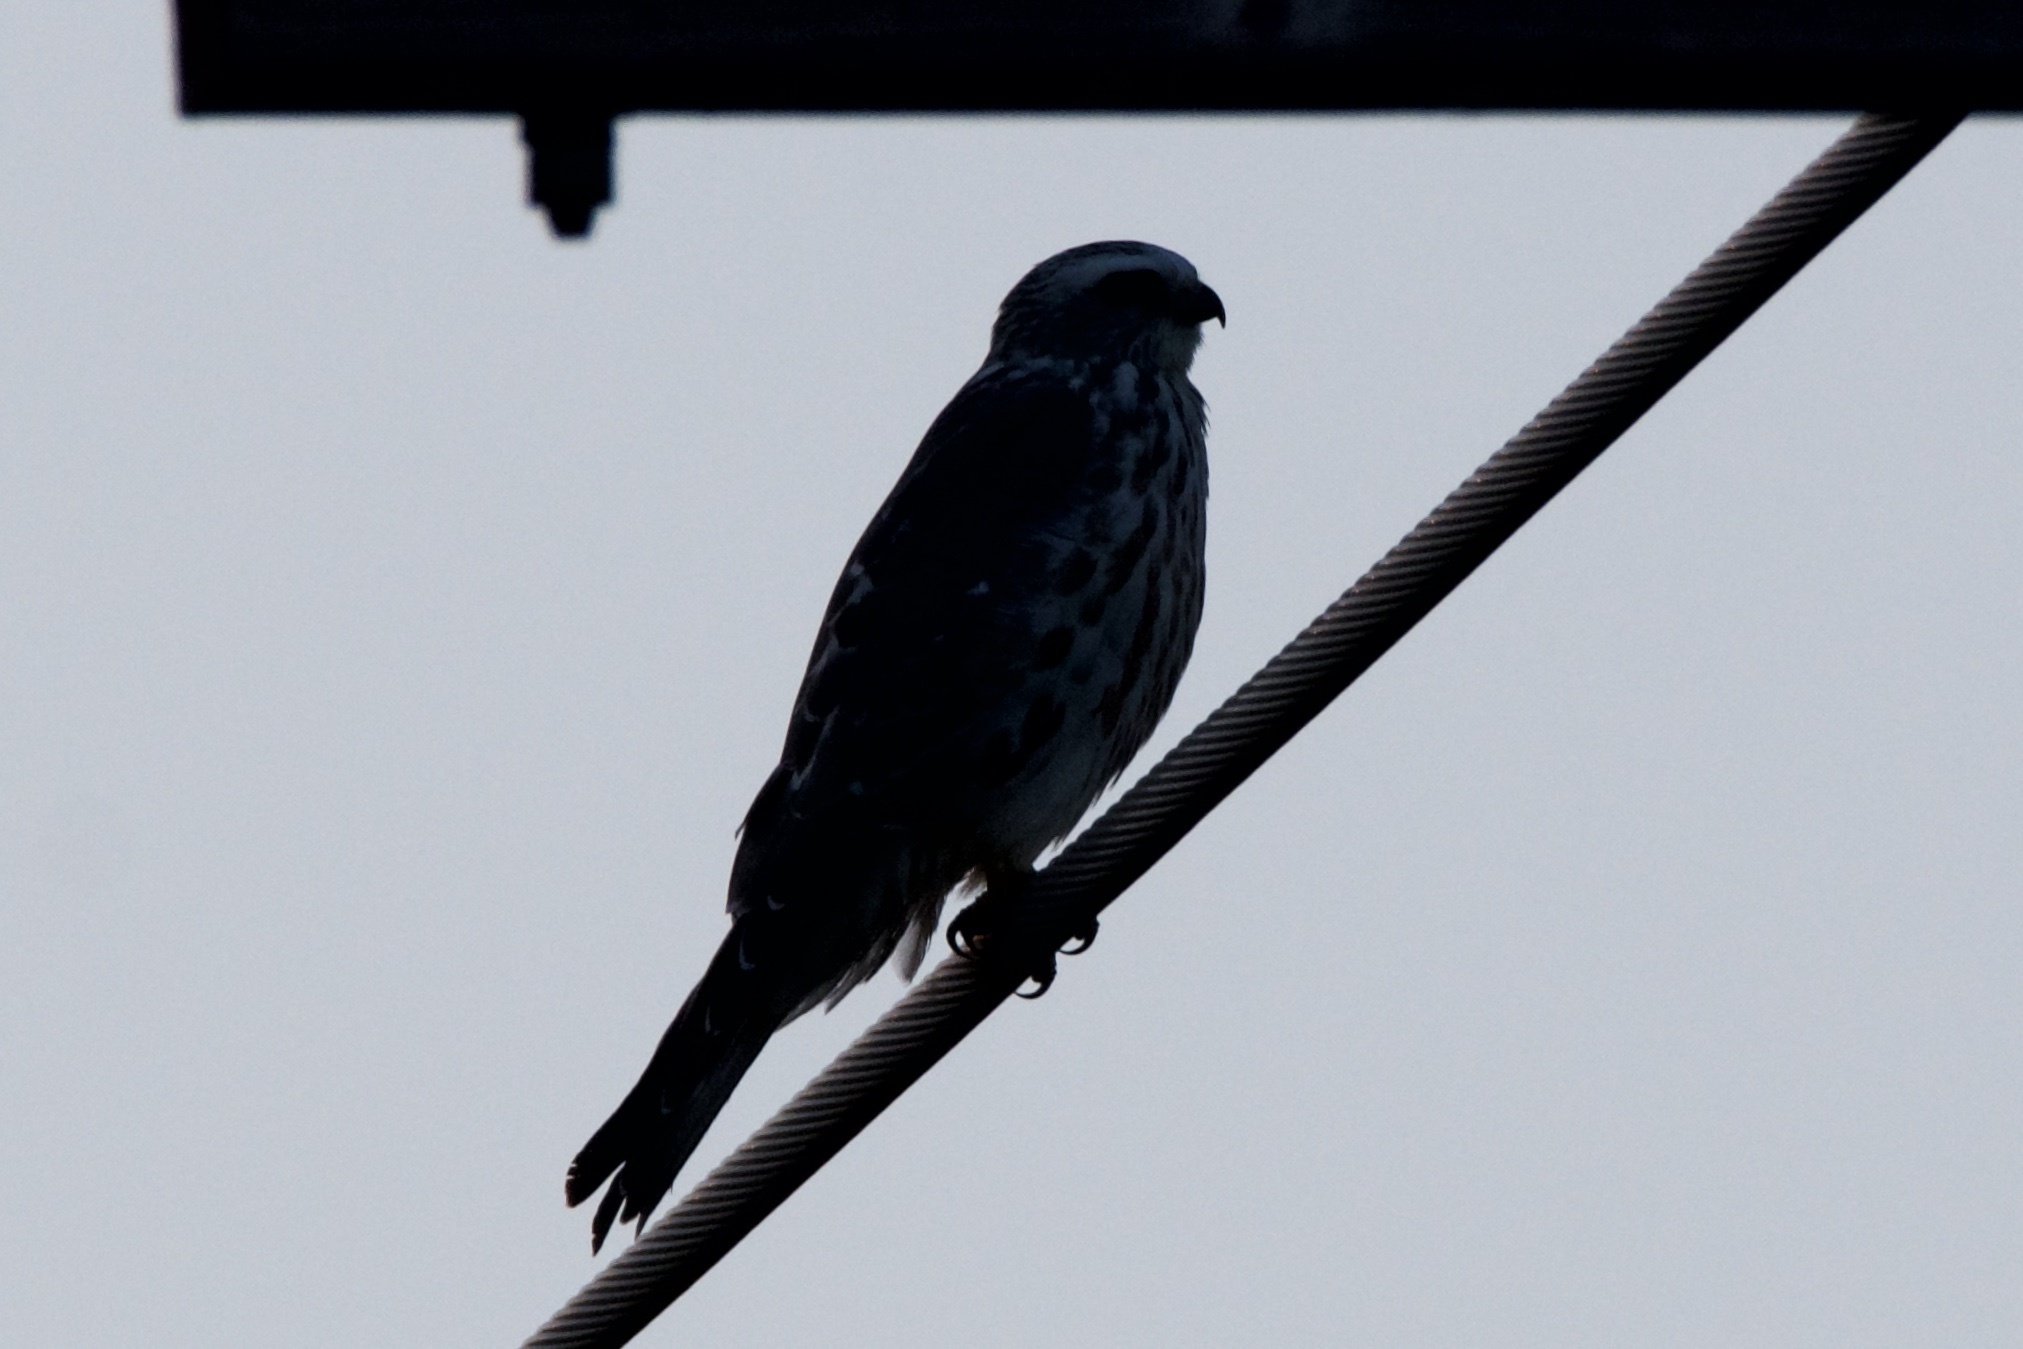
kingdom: Animalia
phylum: Chordata
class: Aves
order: Accipitriformes
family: Accipitridae
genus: Ictinia
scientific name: Ictinia mississippiensis
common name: Mississippi kite
